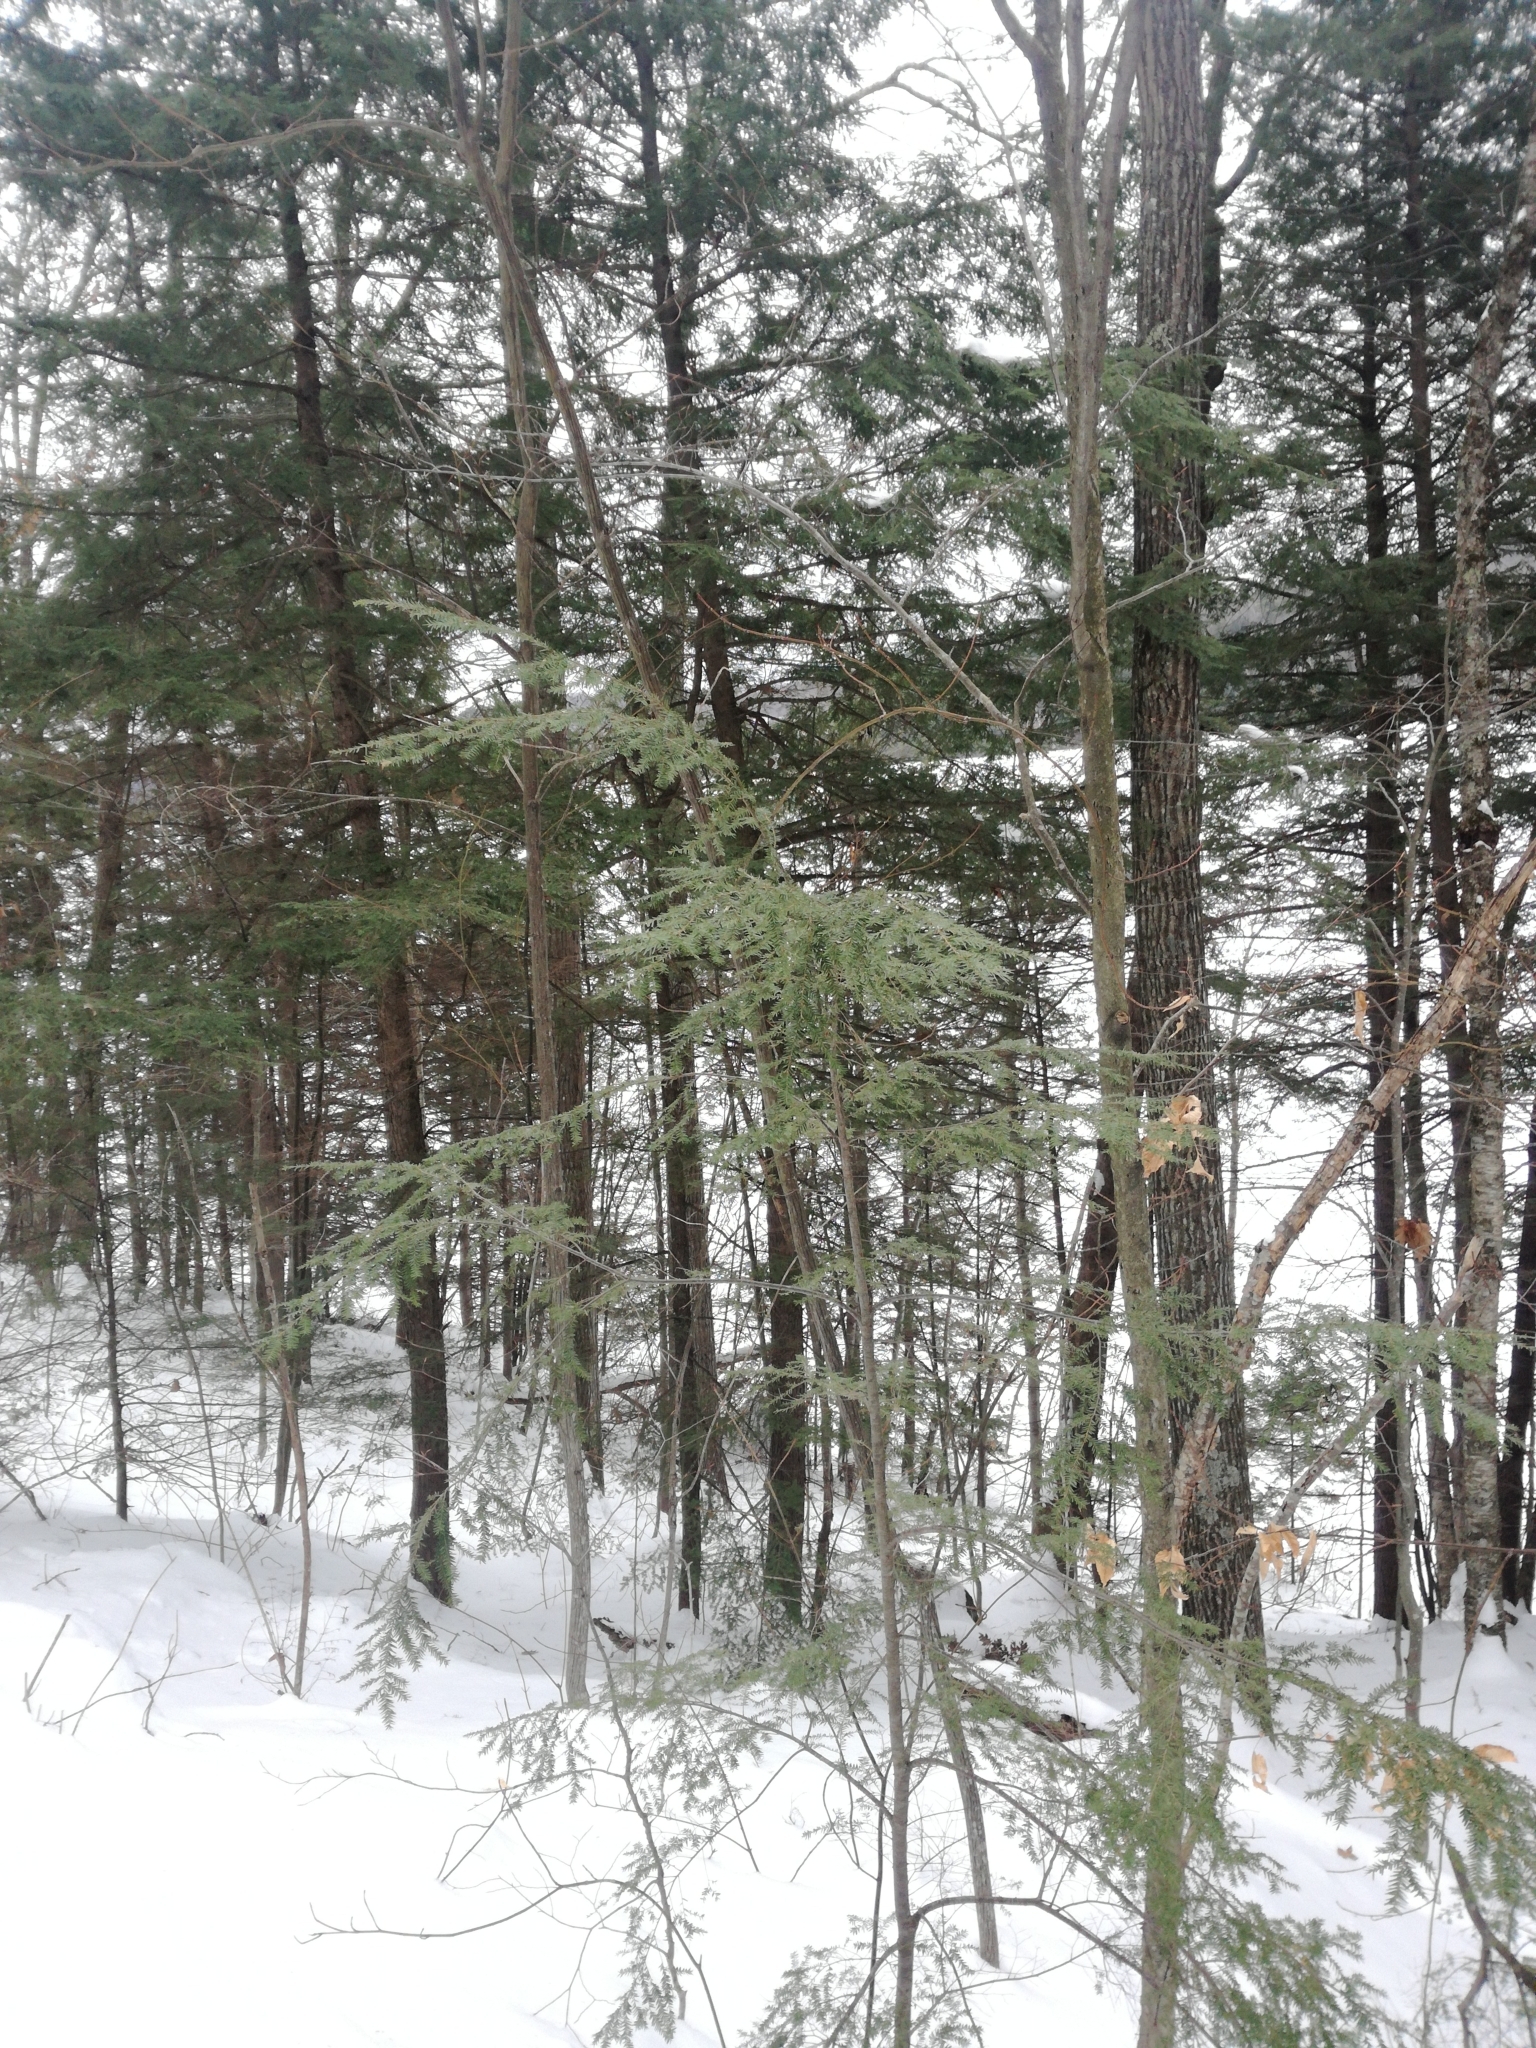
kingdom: Plantae
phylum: Tracheophyta
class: Pinopsida
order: Pinales
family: Pinaceae
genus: Tsuga
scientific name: Tsuga canadensis
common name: Eastern hemlock
